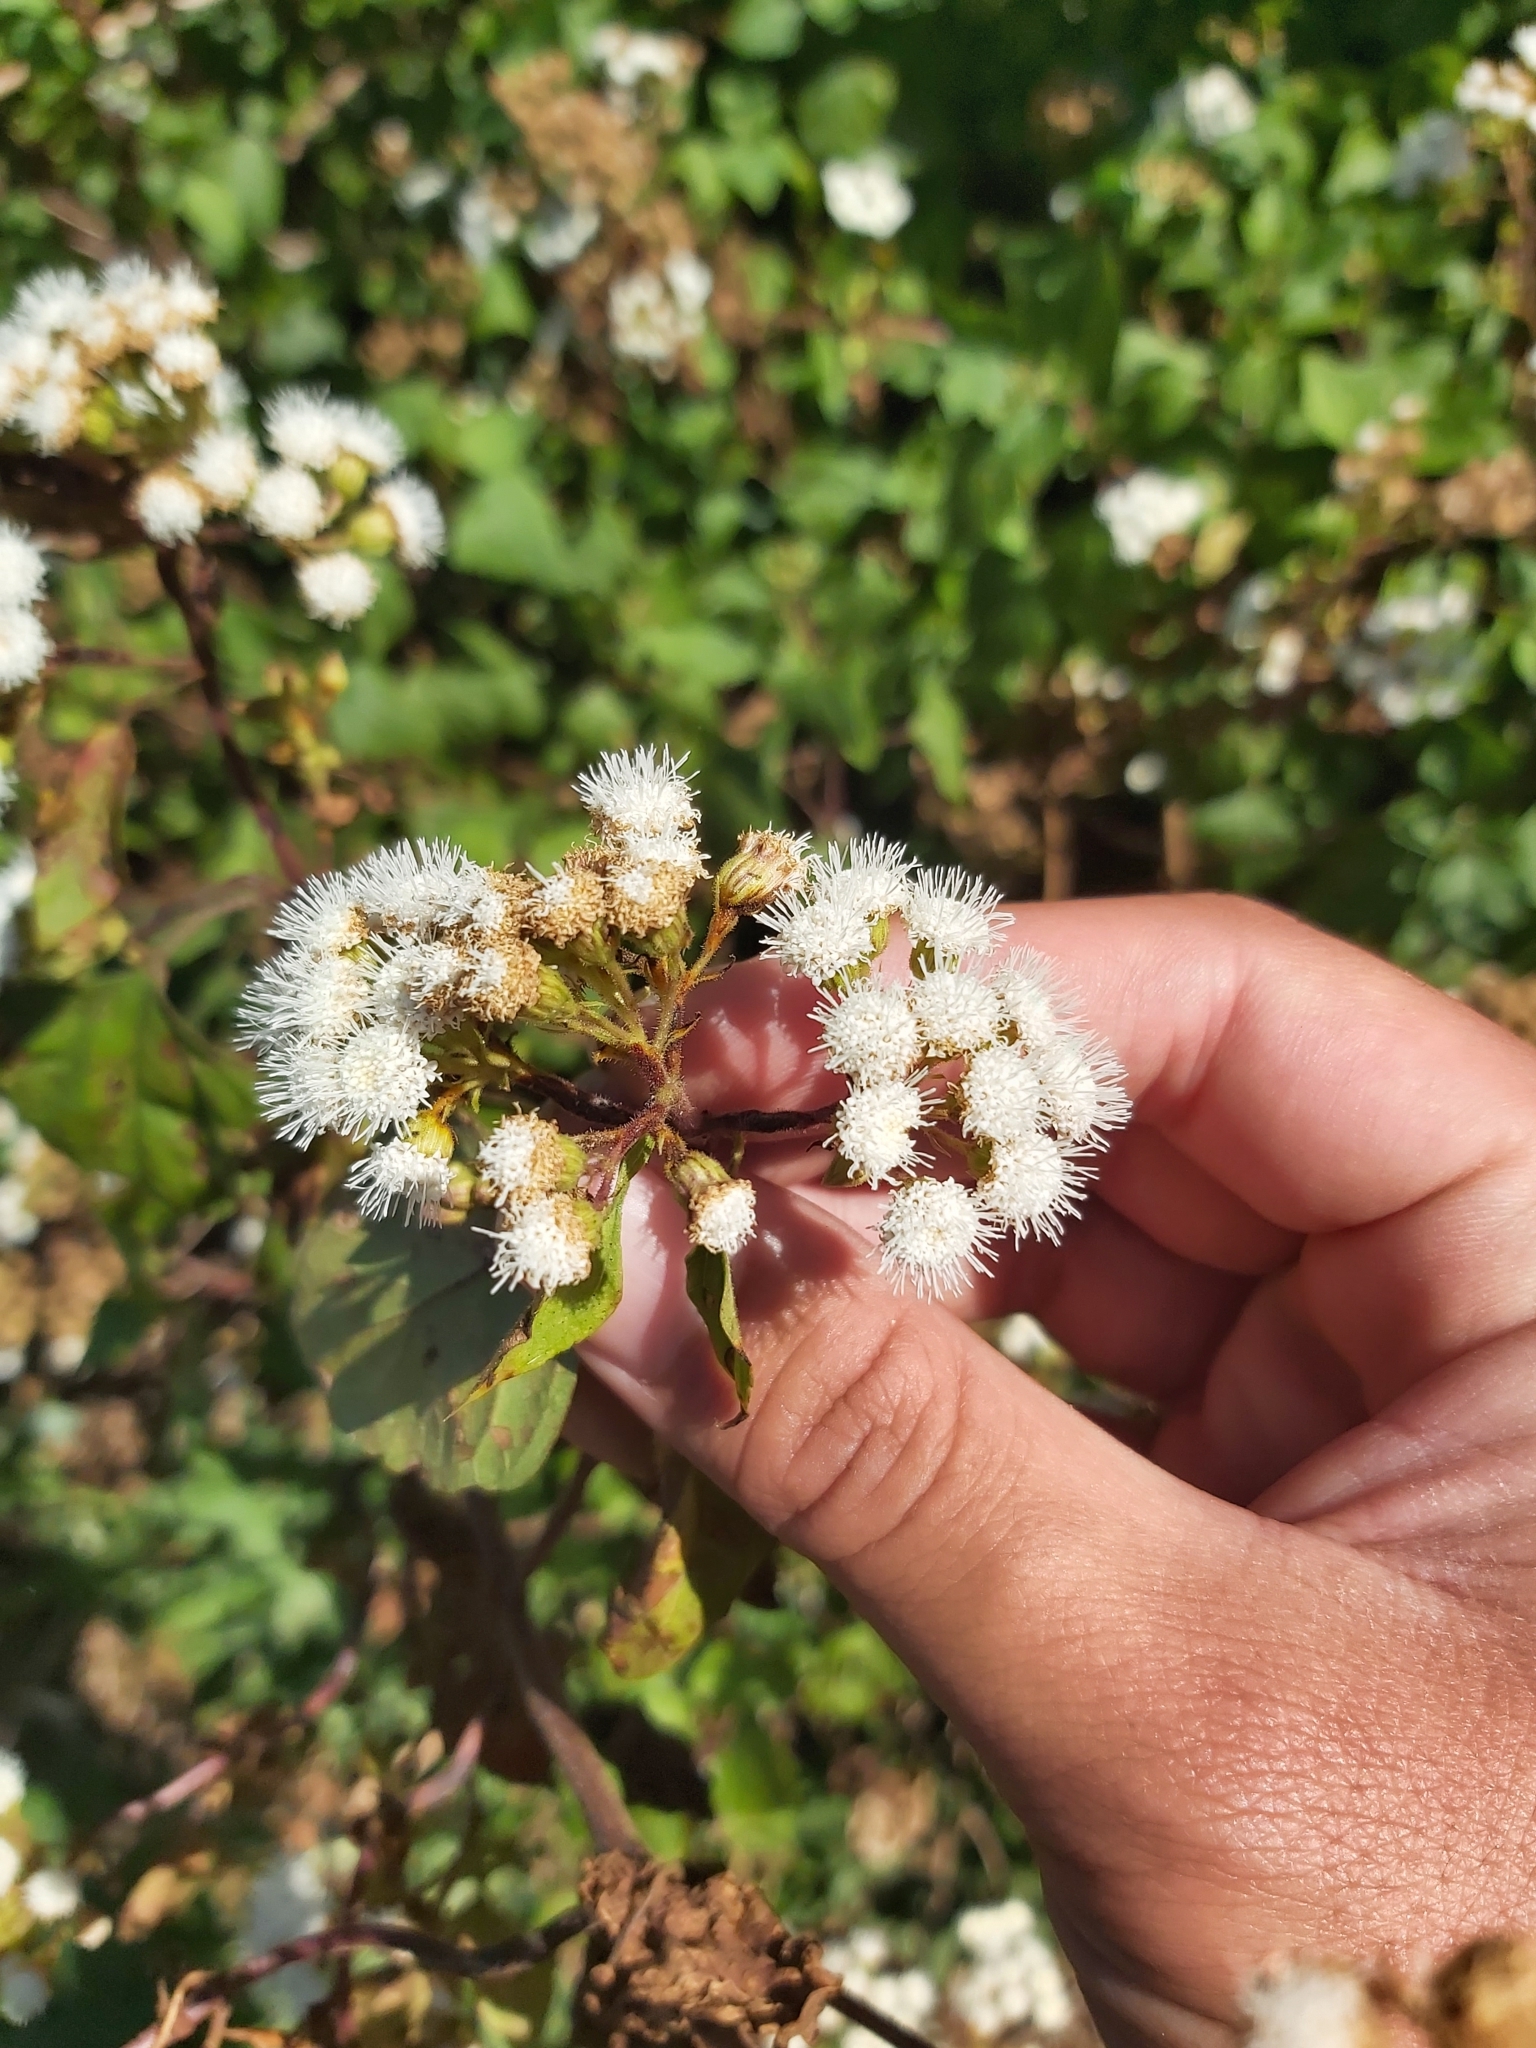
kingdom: Plantae
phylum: Tracheophyta
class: Magnoliopsida
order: Asterales
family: Asteraceae
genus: Ageratina
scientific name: Ageratina adenophora
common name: Sticky snakeroot
